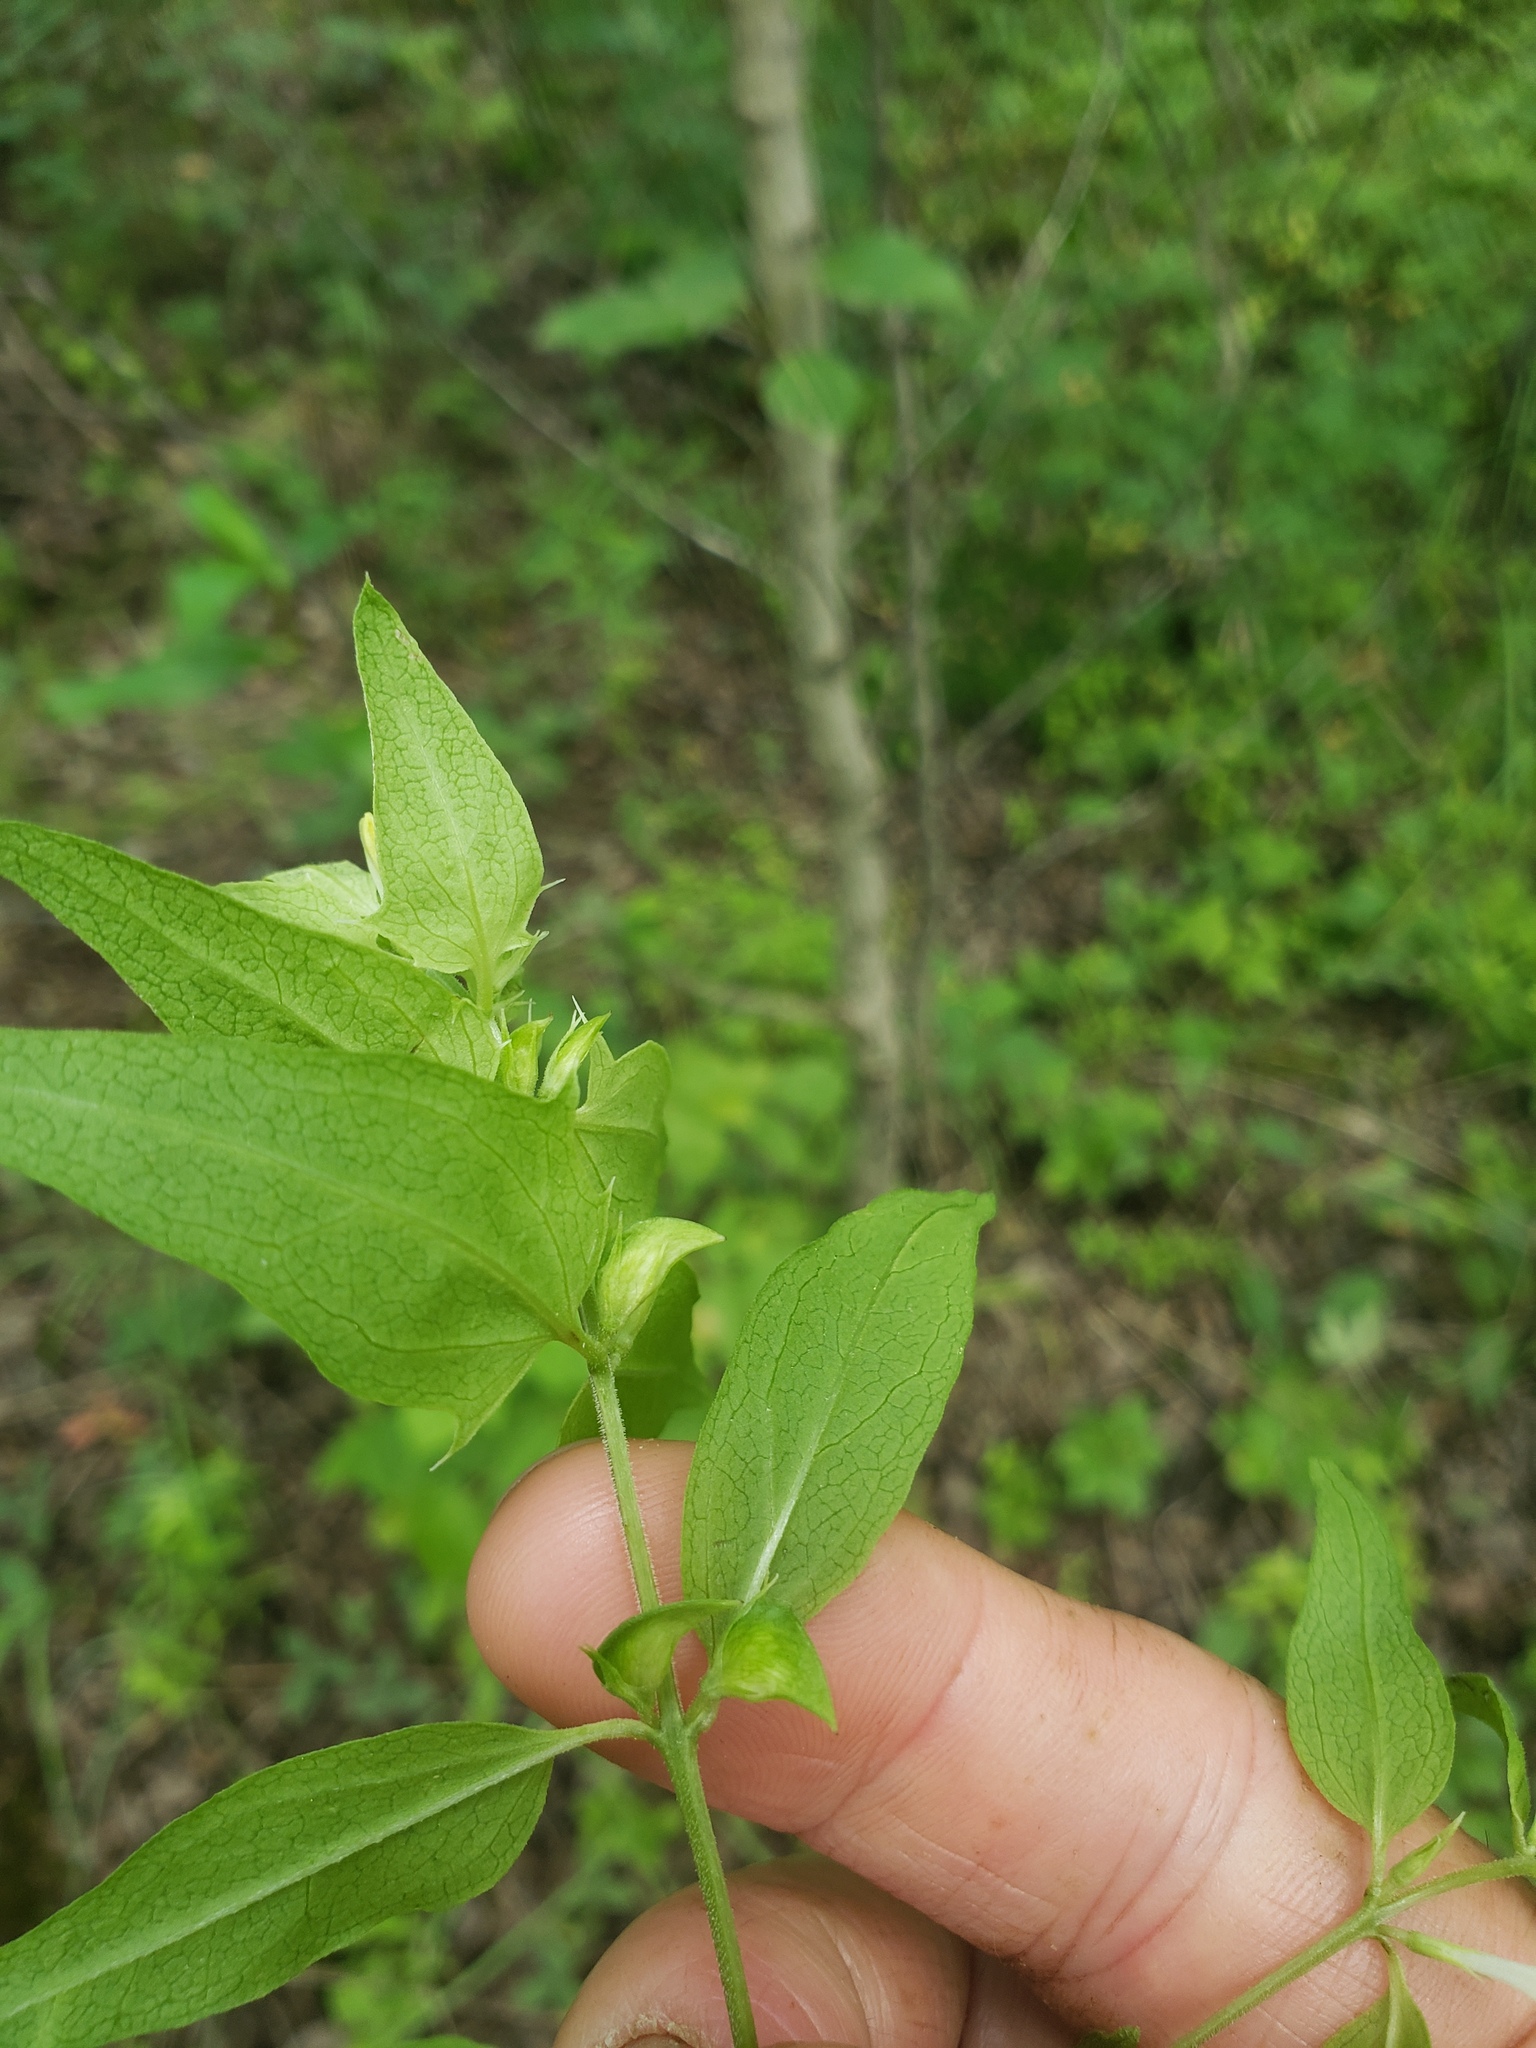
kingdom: Plantae
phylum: Tracheophyta
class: Magnoliopsida
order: Lamiales
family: Orobanchaceae
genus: Melampyrum
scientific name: Melampyrum lineare
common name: American cow-wheat
